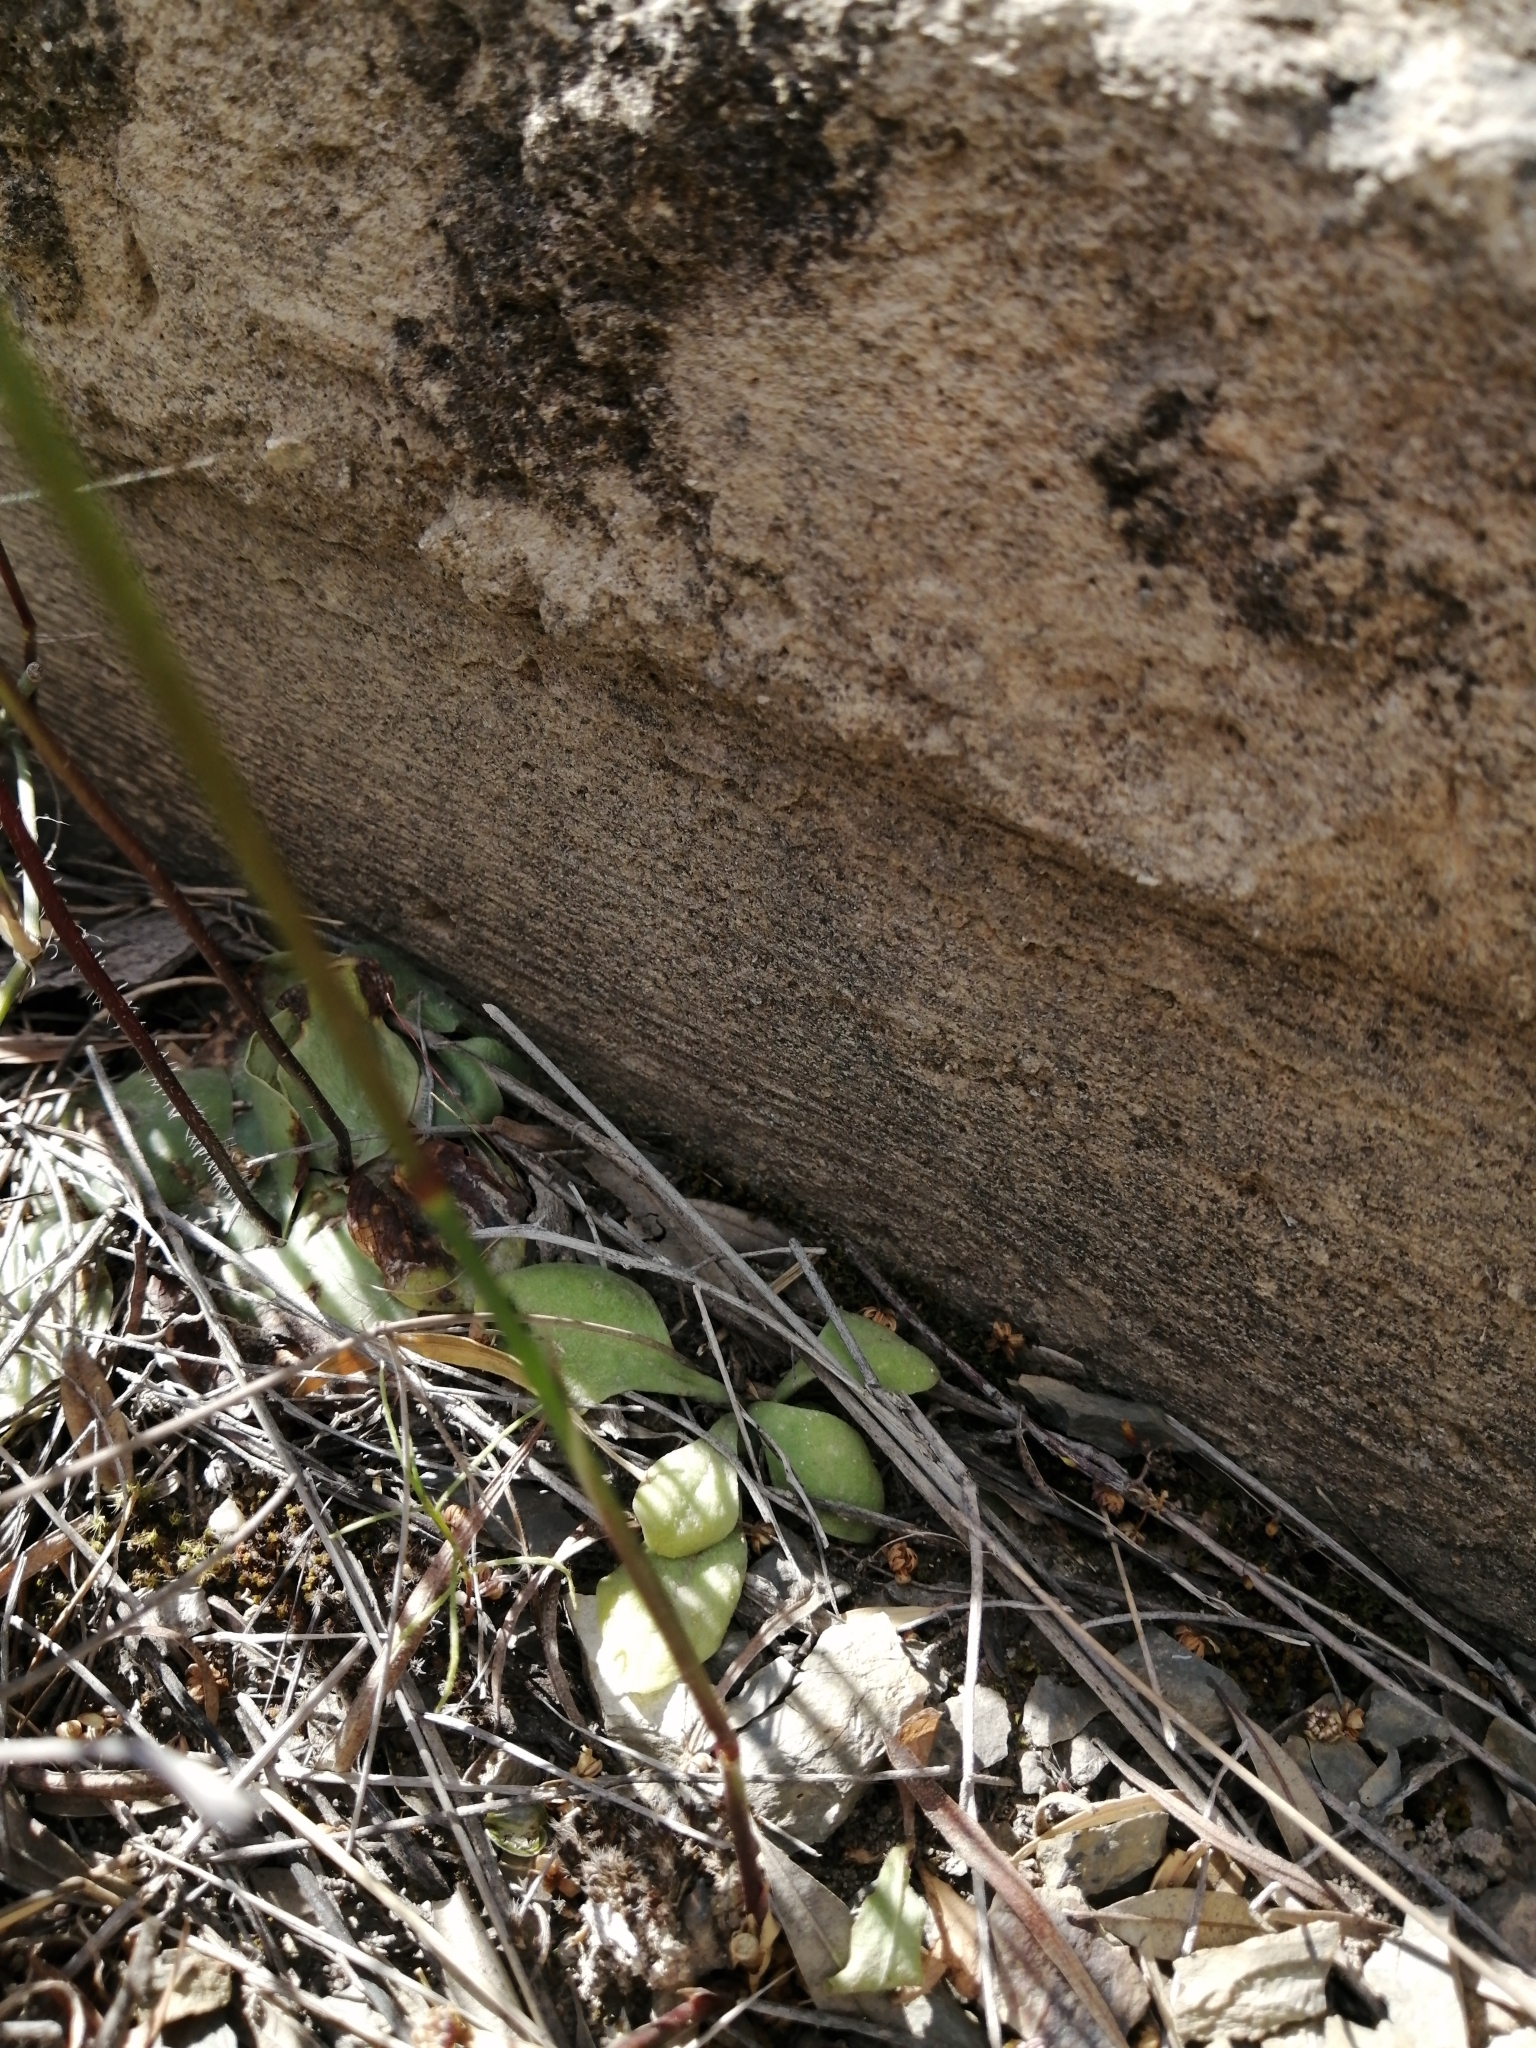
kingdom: Plantae
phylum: Tracheophyta
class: Liliopsida
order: Asparagales
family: Orchidaceae
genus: Holothrix
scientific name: Holothrix secunda
